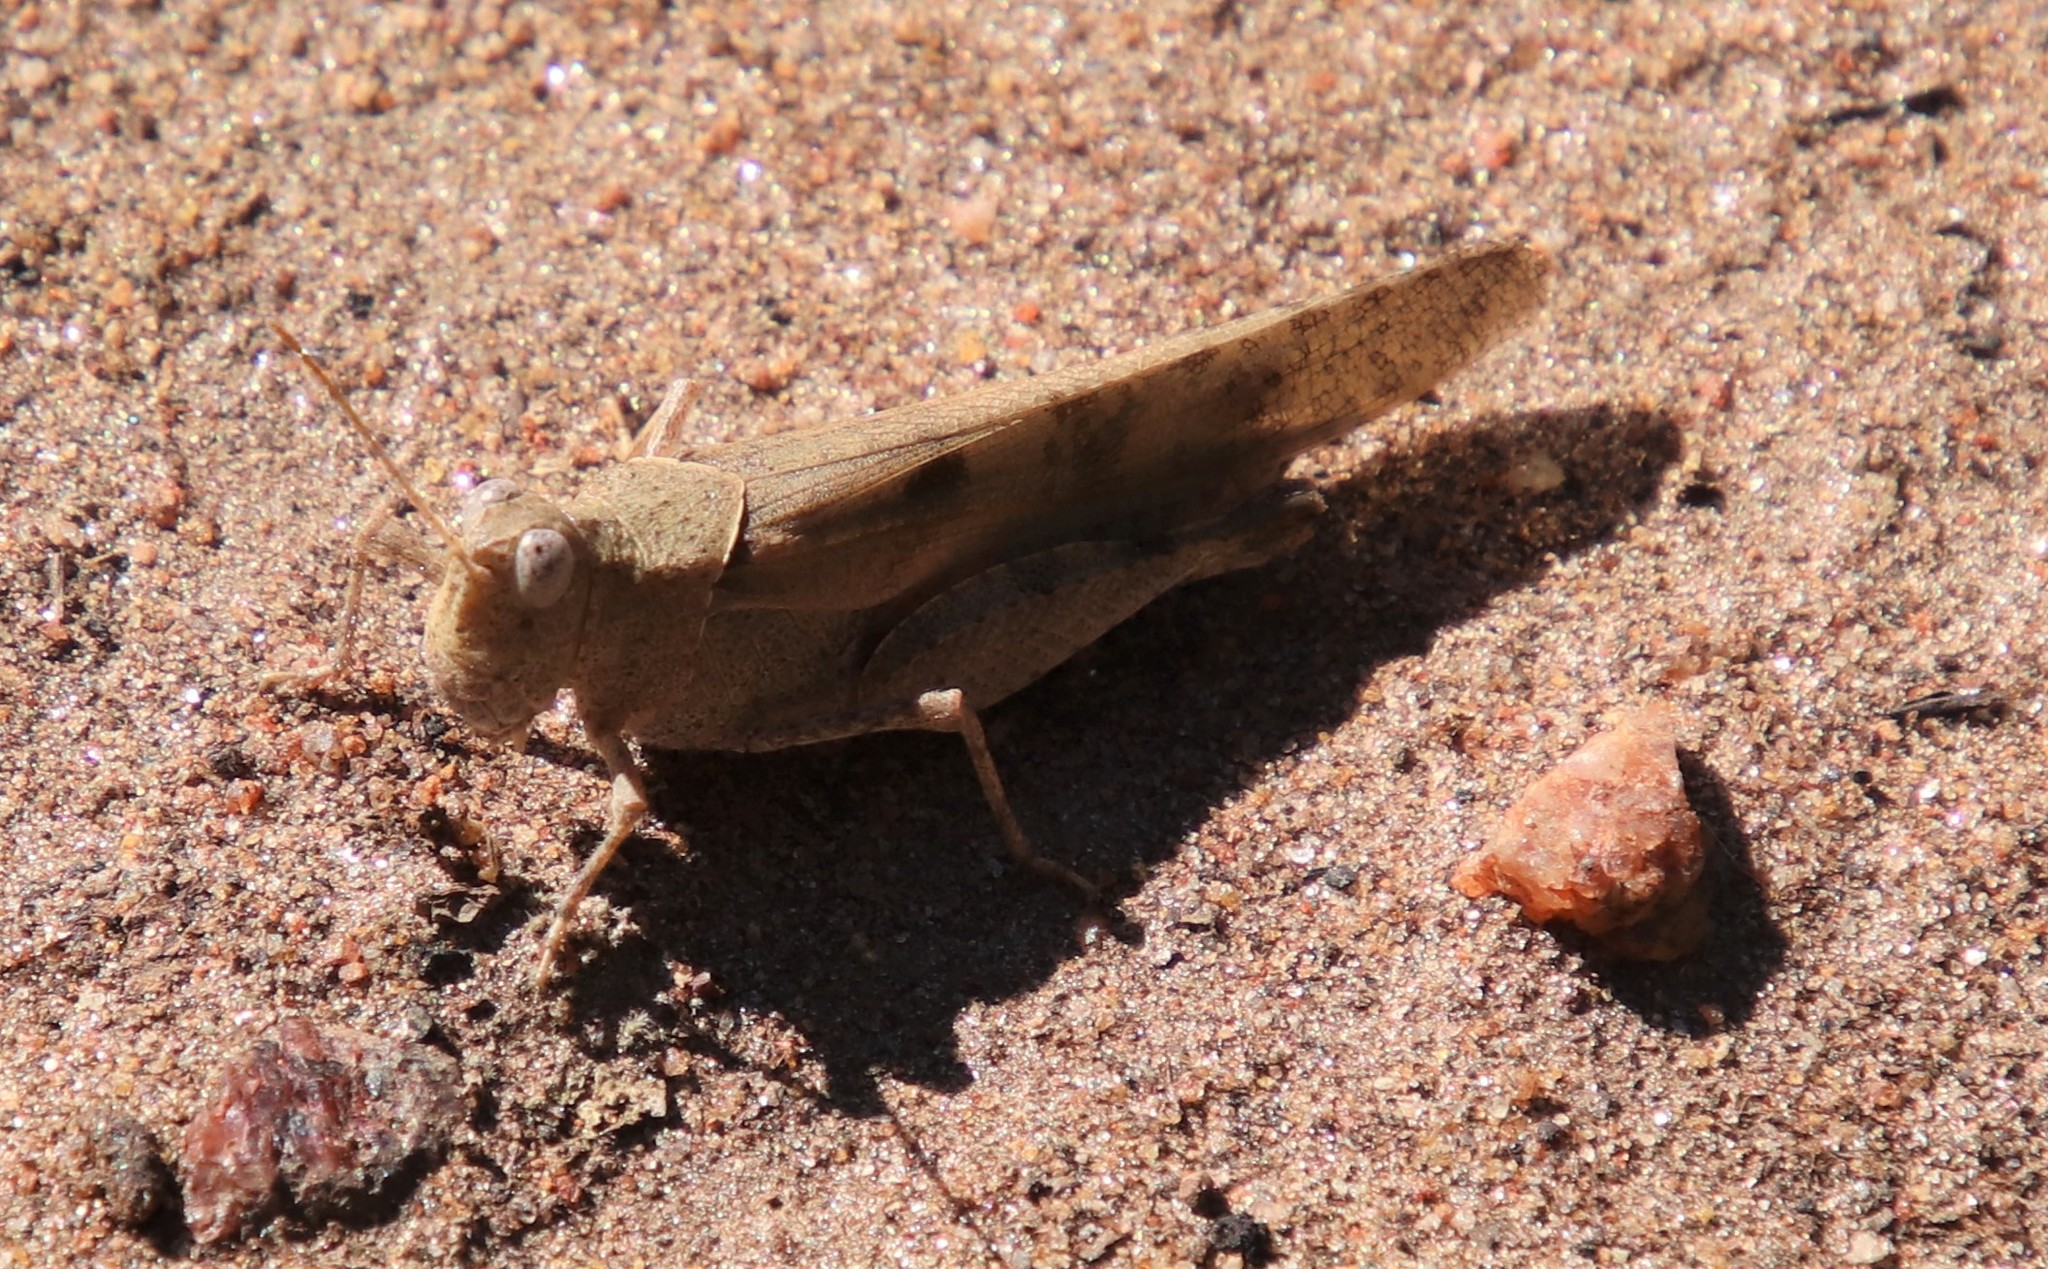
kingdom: Animalia
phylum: Arthropoda
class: Insecta
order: Orthoptera
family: Acrididae
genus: Trimerotropis
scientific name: Trimerotropis thalassica
